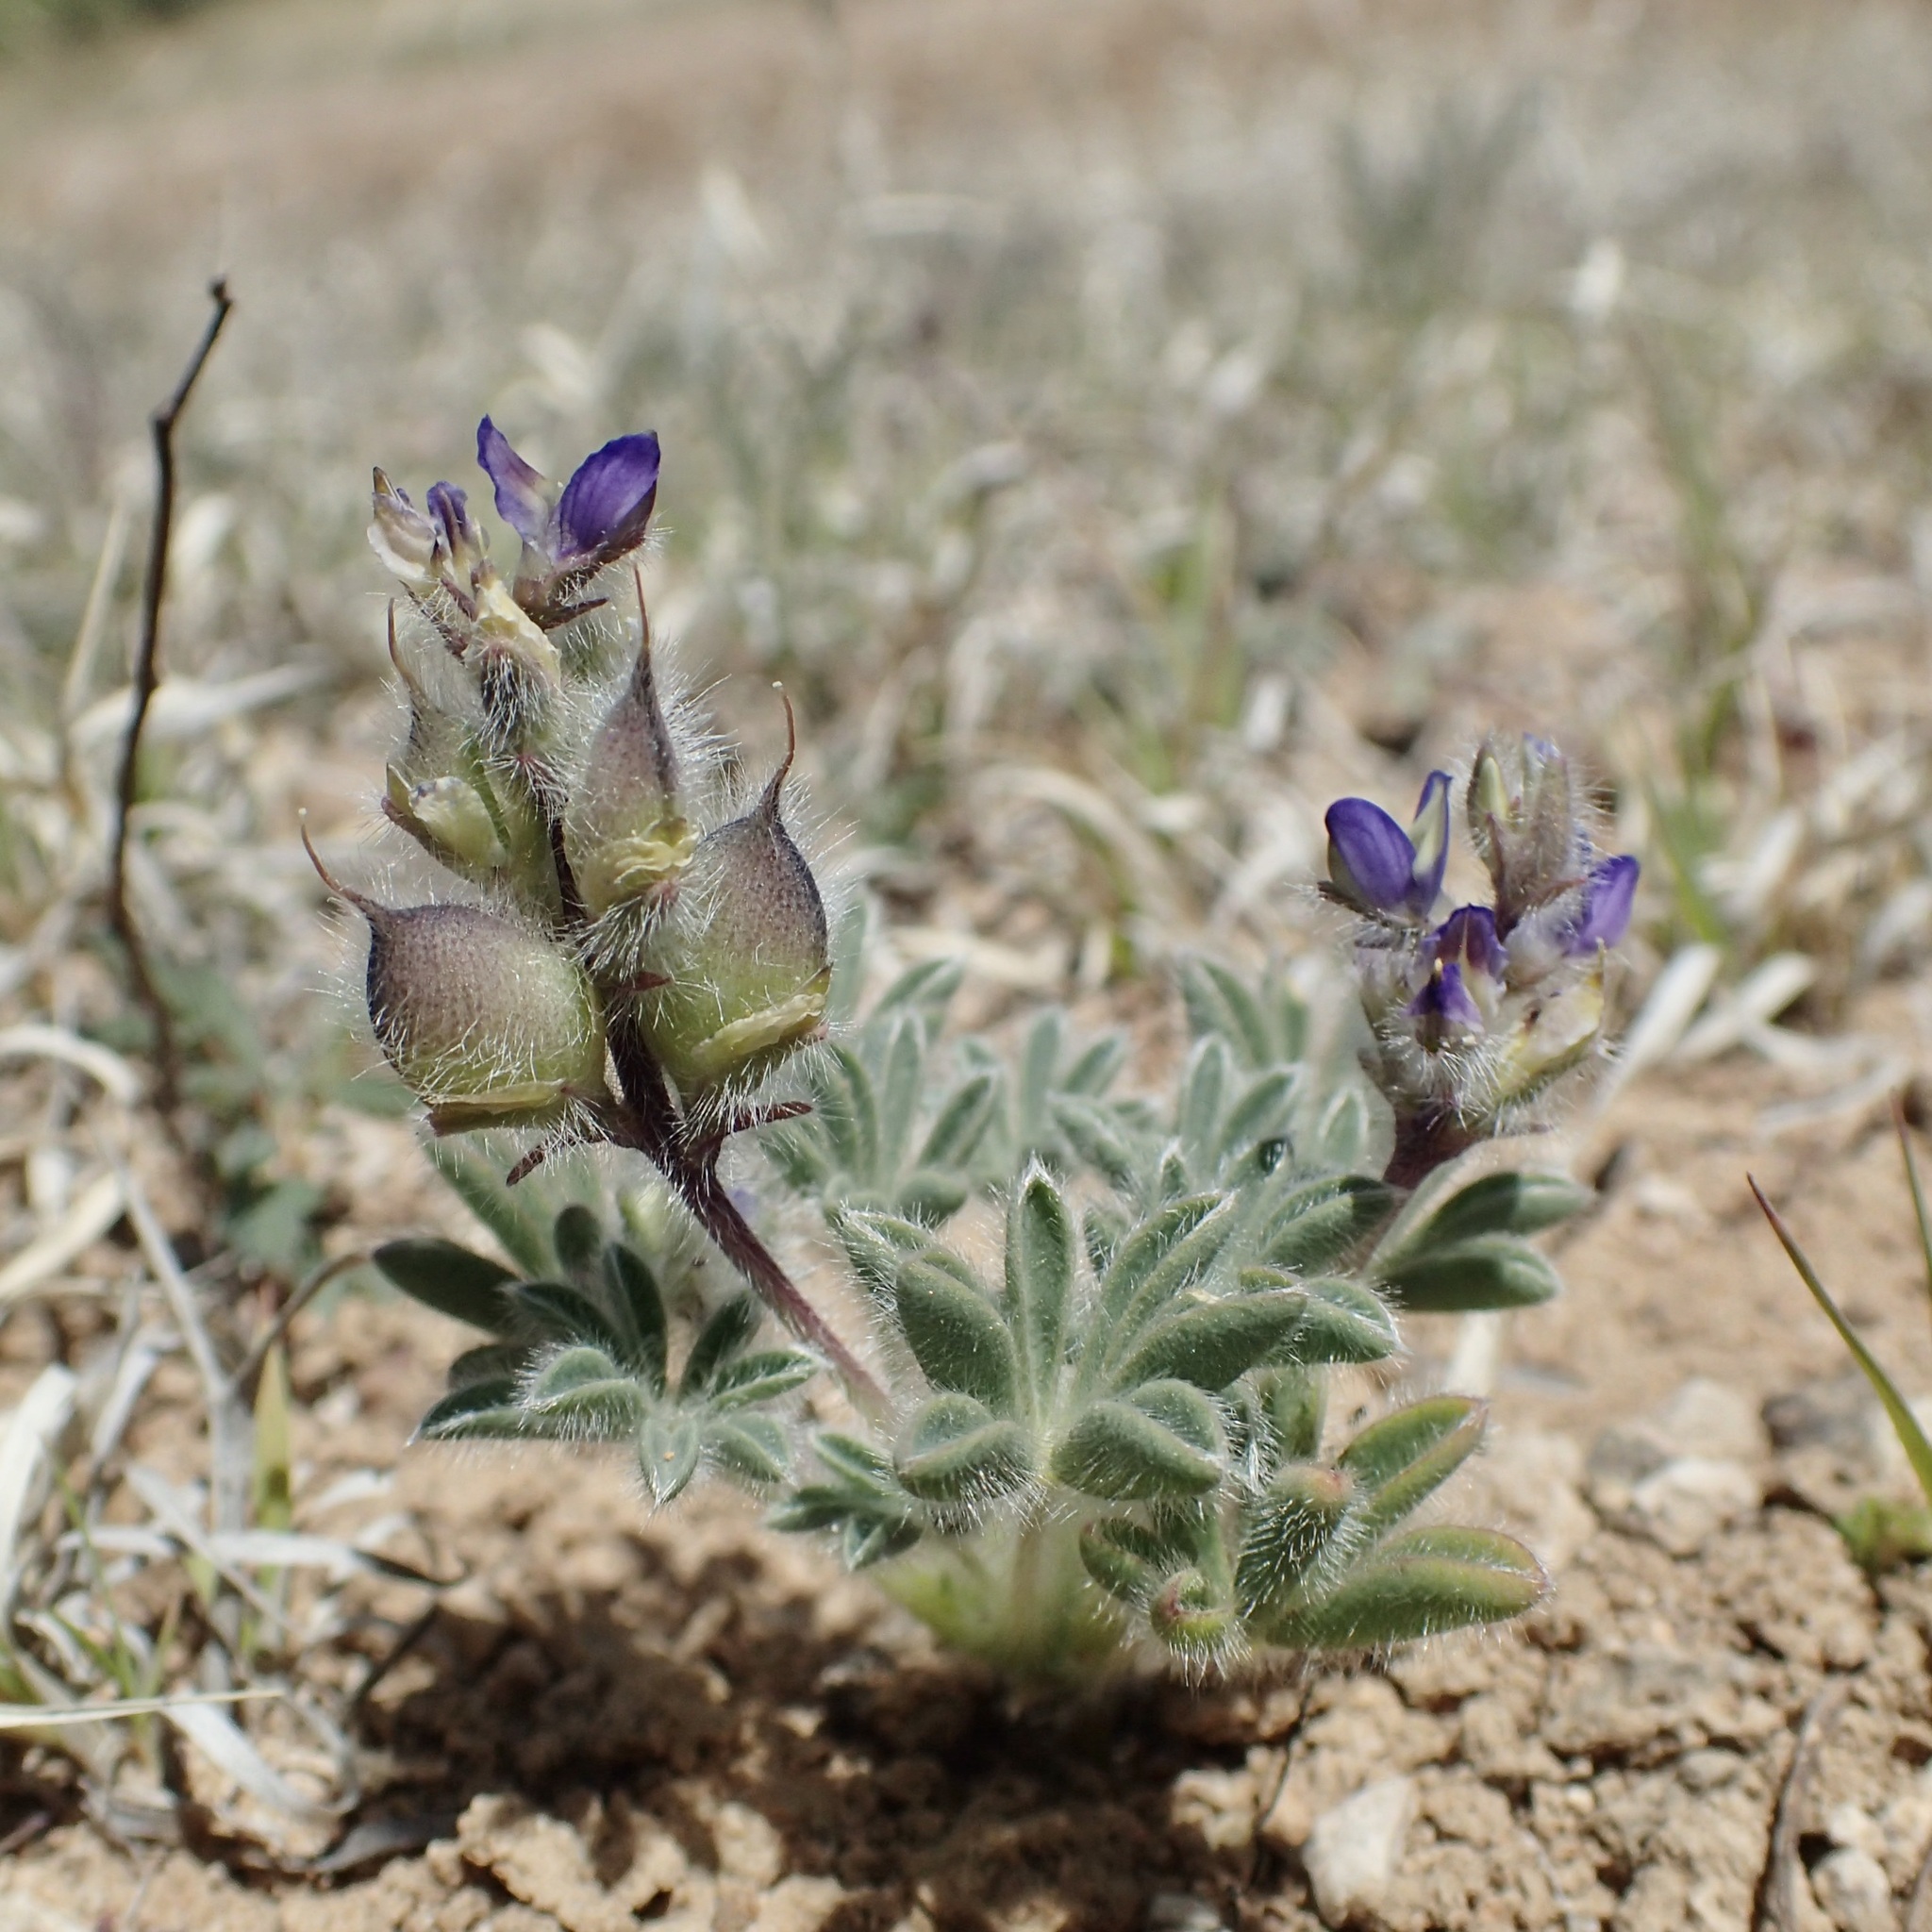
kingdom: Plantae
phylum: Tracheophyta
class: Magnoliopsida
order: Fabales
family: Fabaceae
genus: Lupinus
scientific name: Lupinus brevicaulis
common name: Sand lupine
